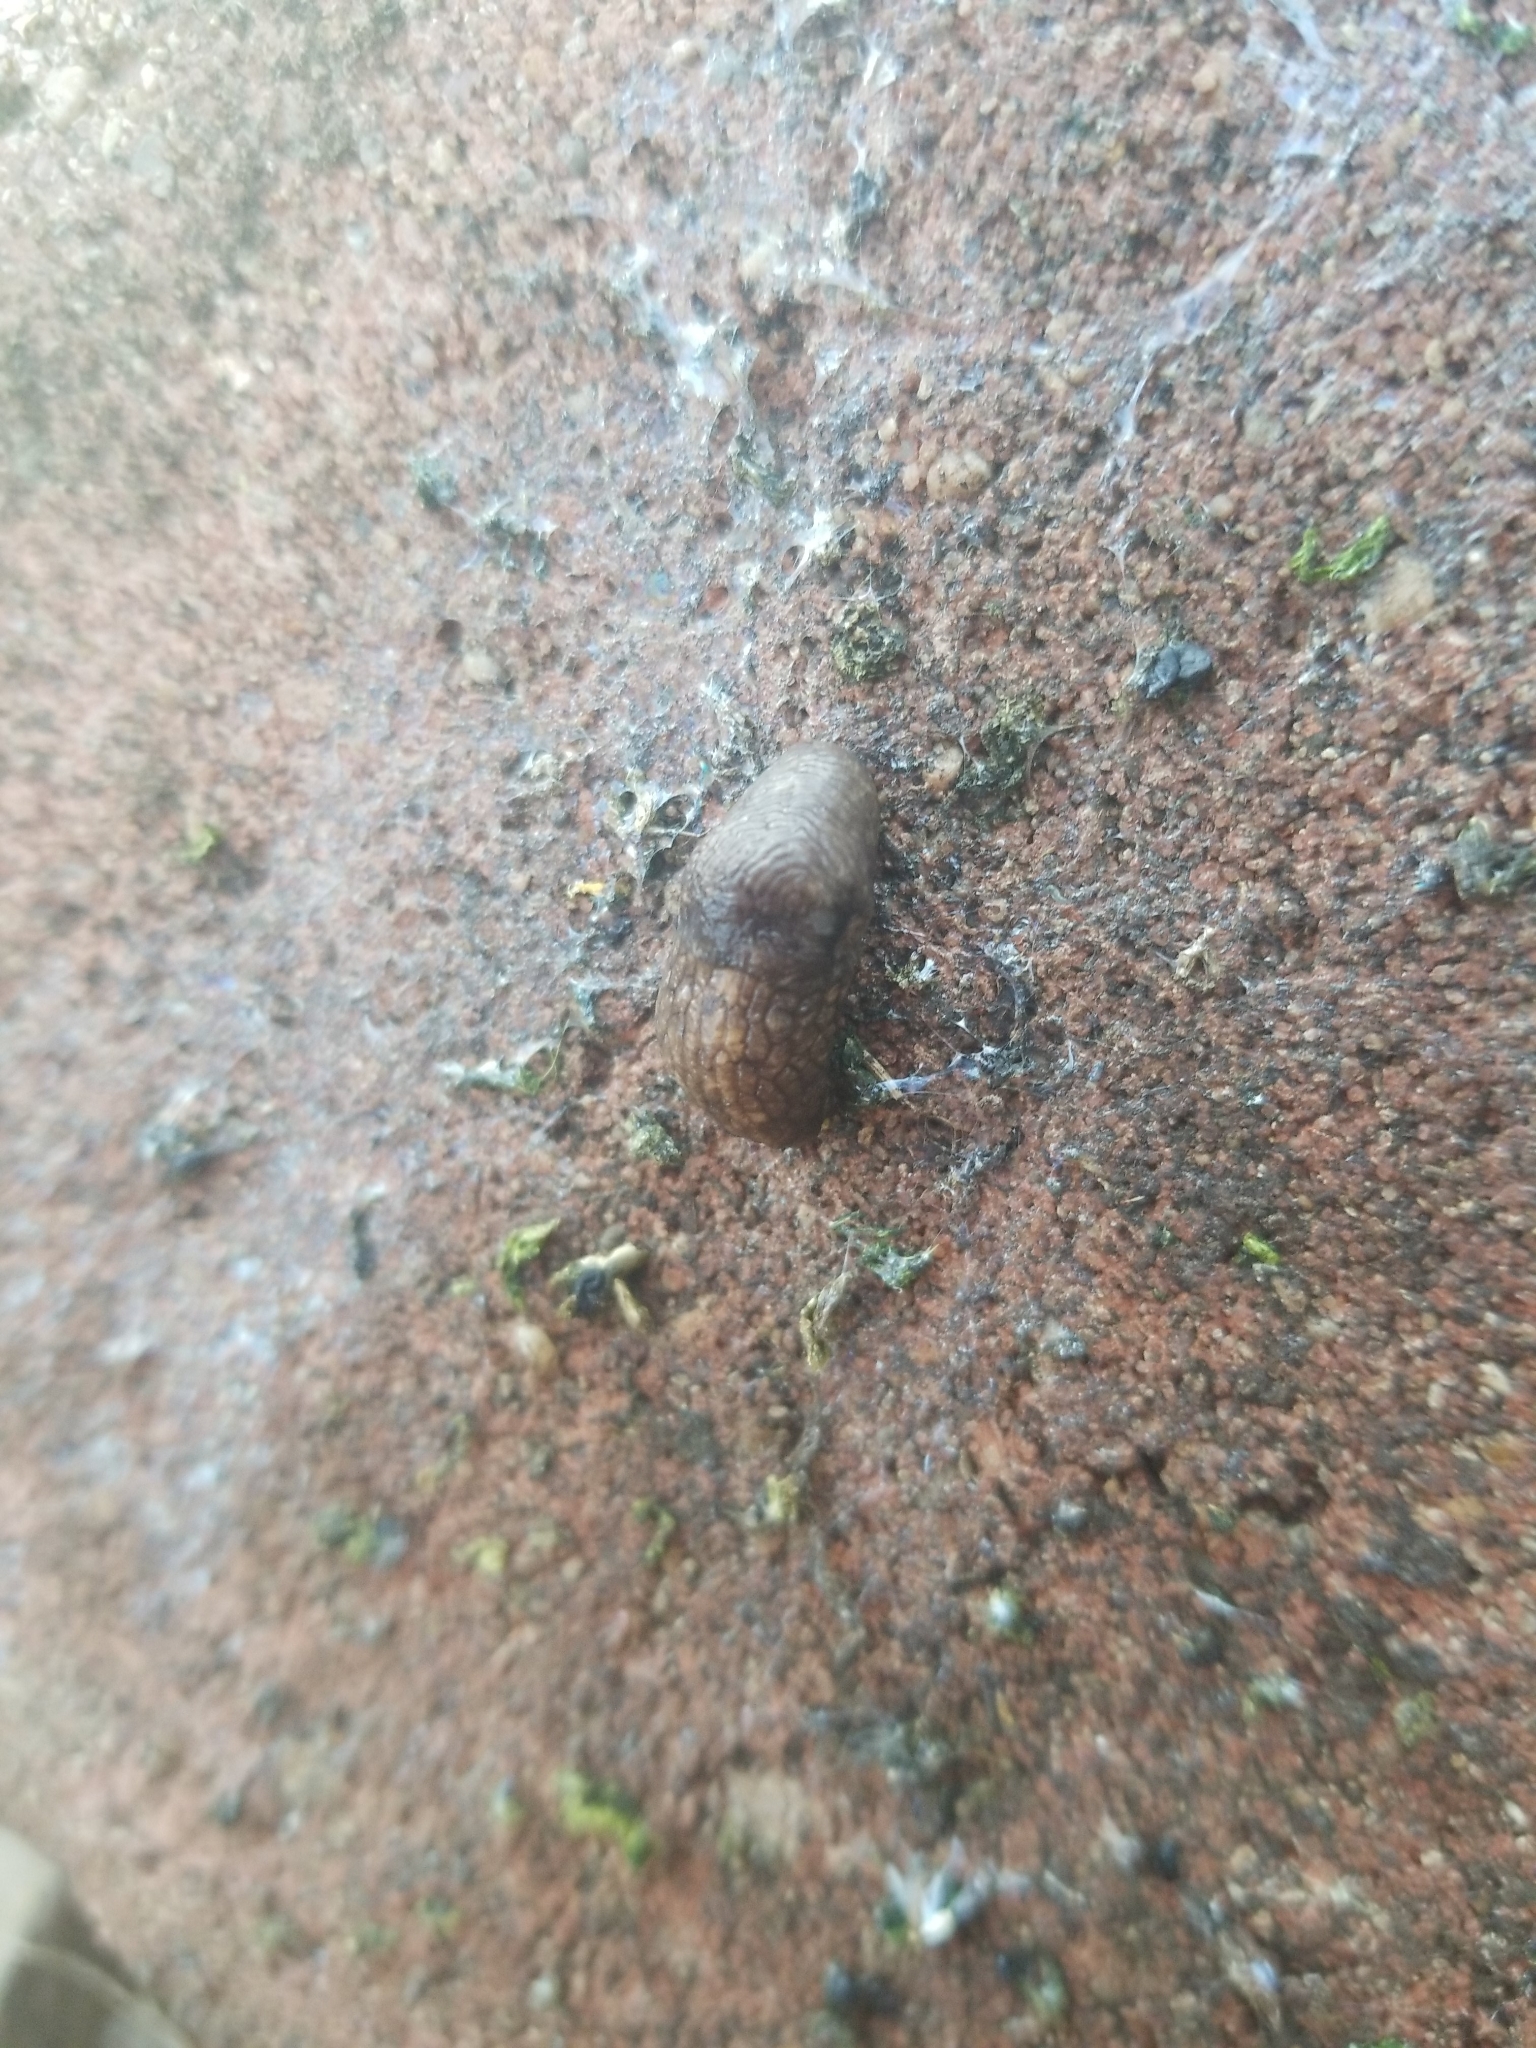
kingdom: Animalia
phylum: Mollusca
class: Gastropoda
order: Stylommatophora
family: Agriolimacidae
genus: Deroceras
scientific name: Deroceras reticulatum
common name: Gray field slug
